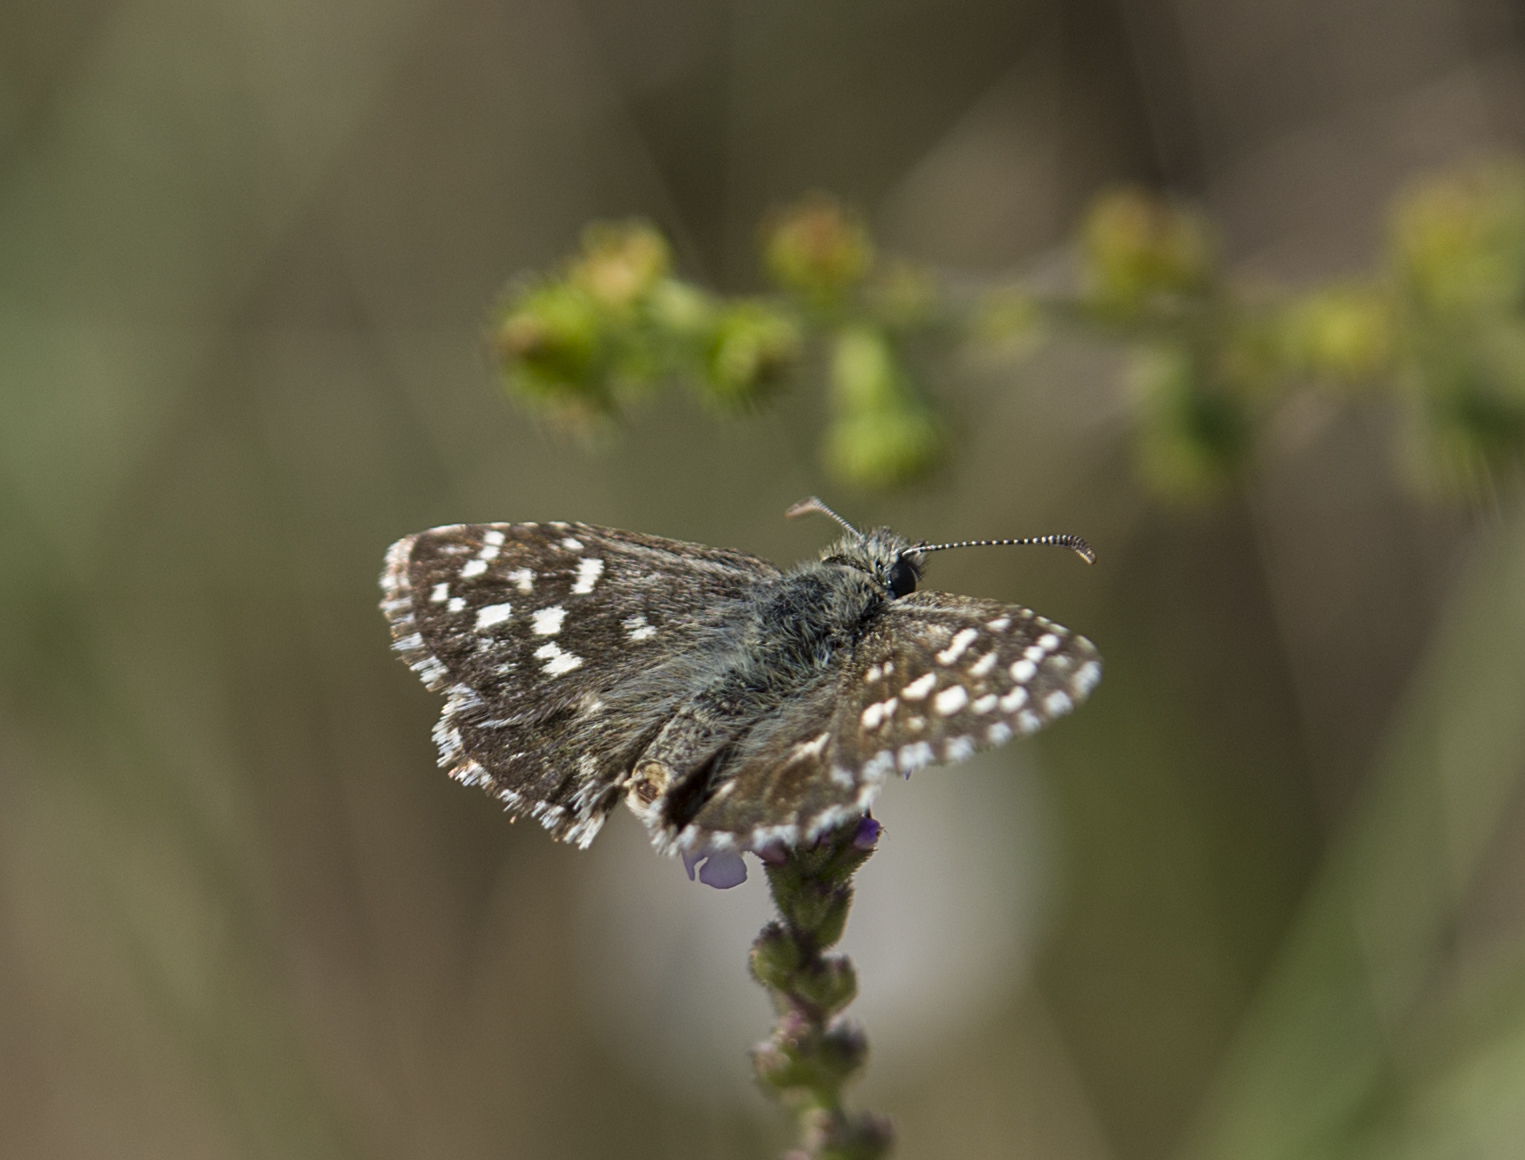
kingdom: Animalia
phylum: Arthropoda
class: Insecta
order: Lepidoptera
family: Hesperiidae
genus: Pyrgus
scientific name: Pyrgus malvae
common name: Grizzled skipper
